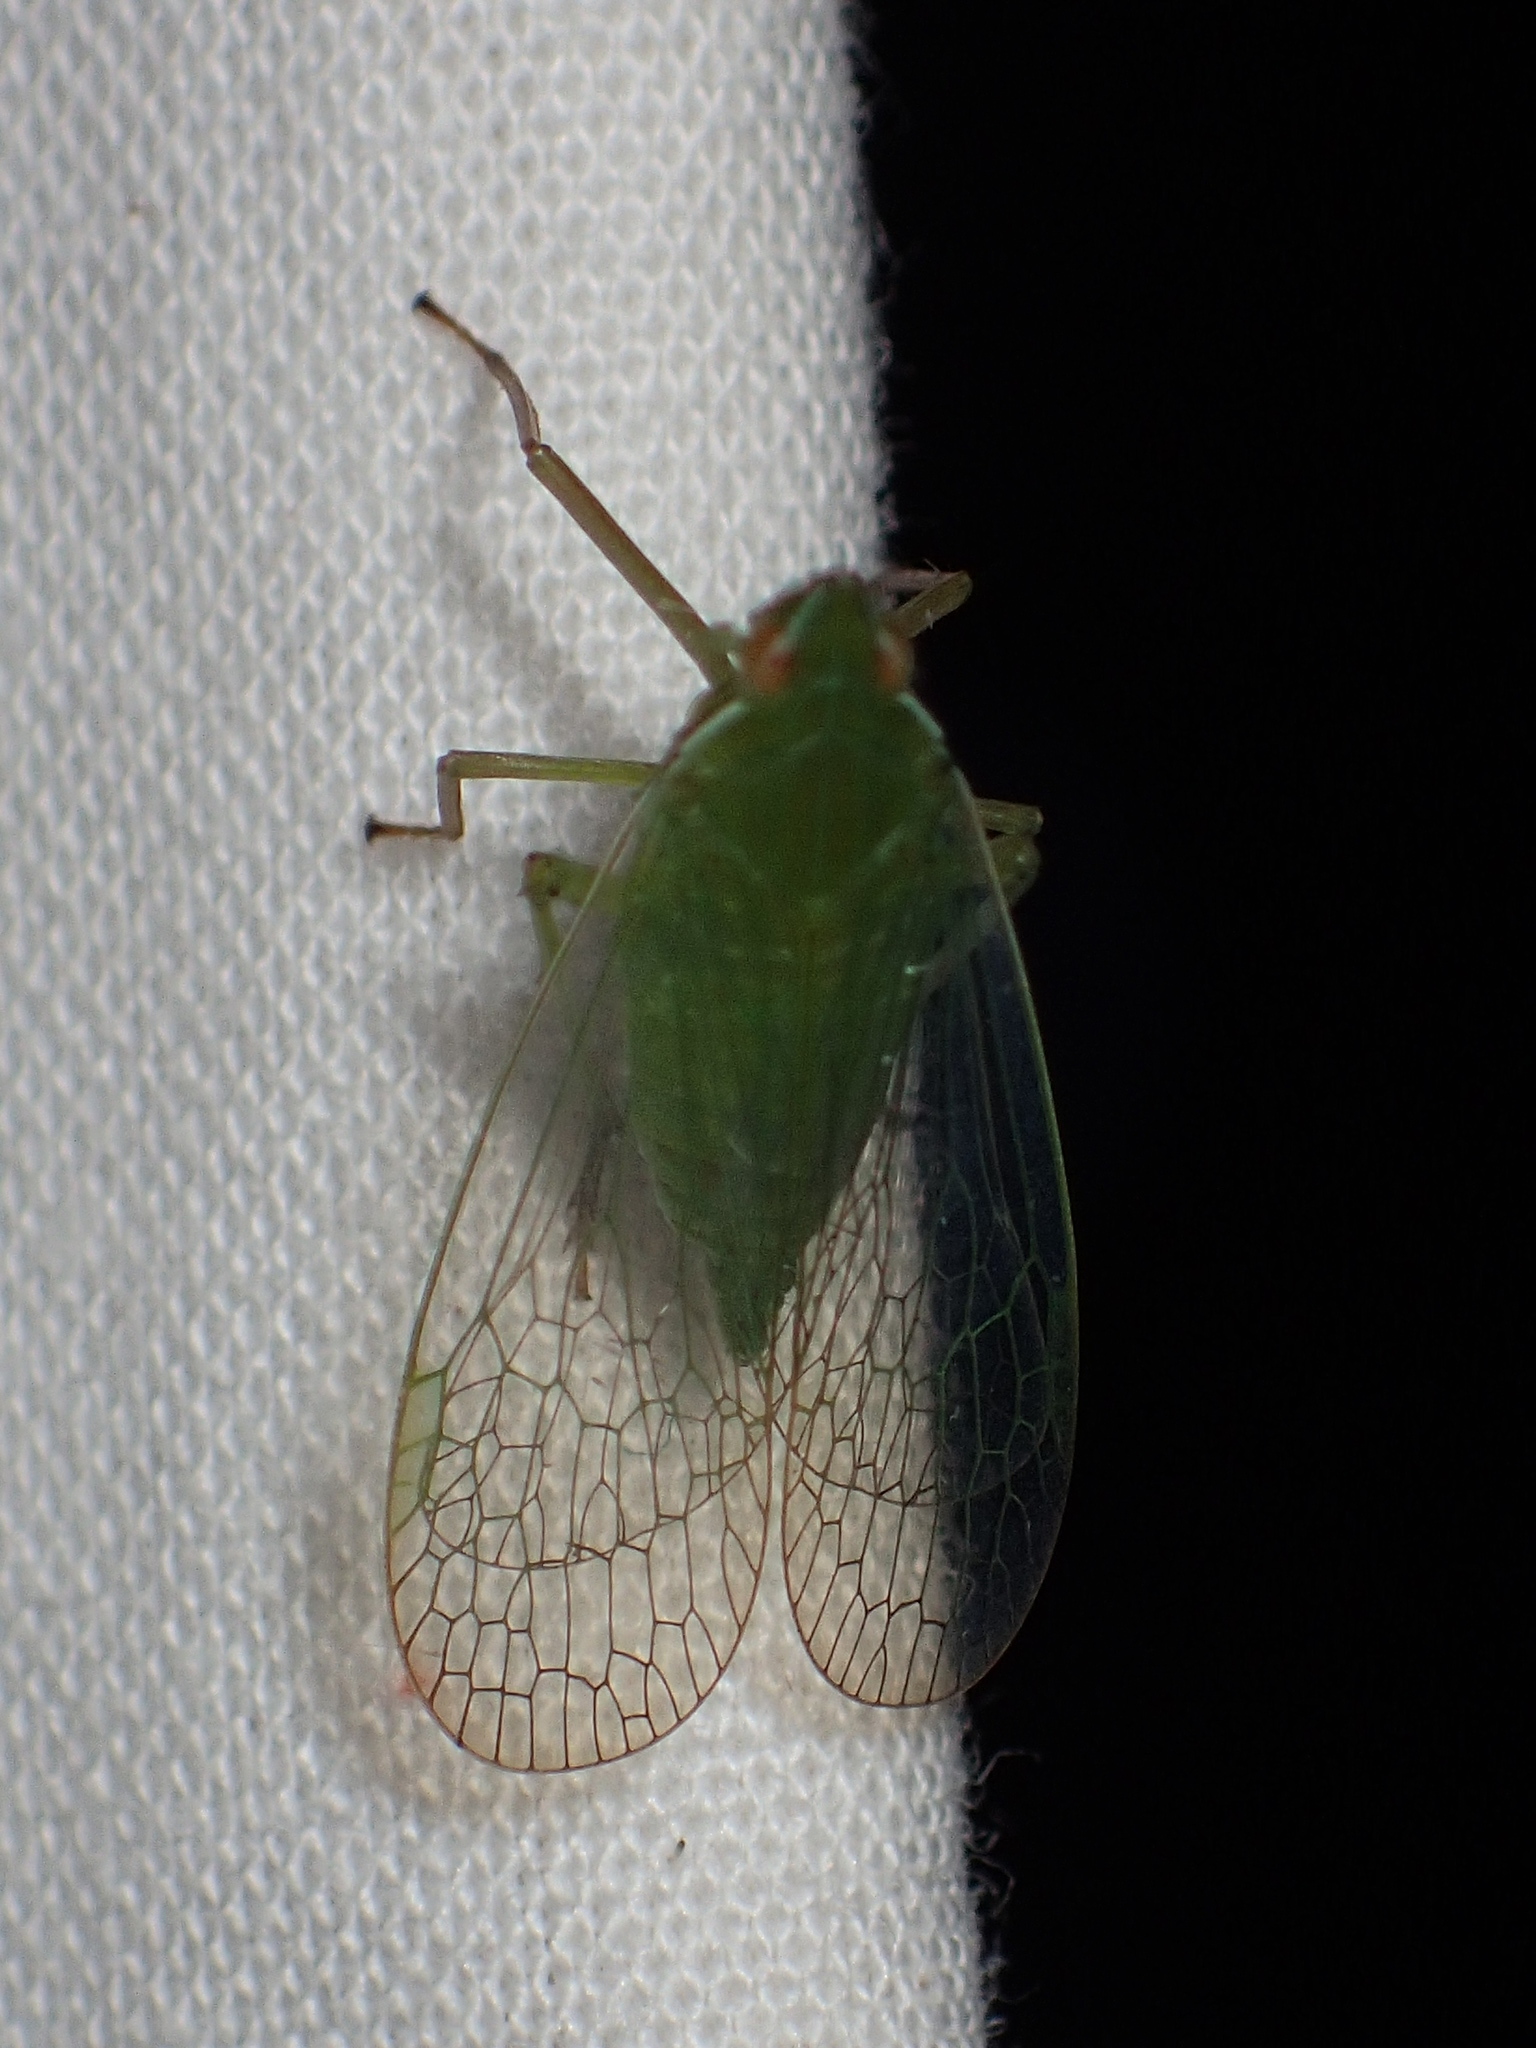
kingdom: Animalia
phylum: Arthropoda
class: Insecta
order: Hemiptera
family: Dictyopharidae
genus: Nersia
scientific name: Nersia florida
